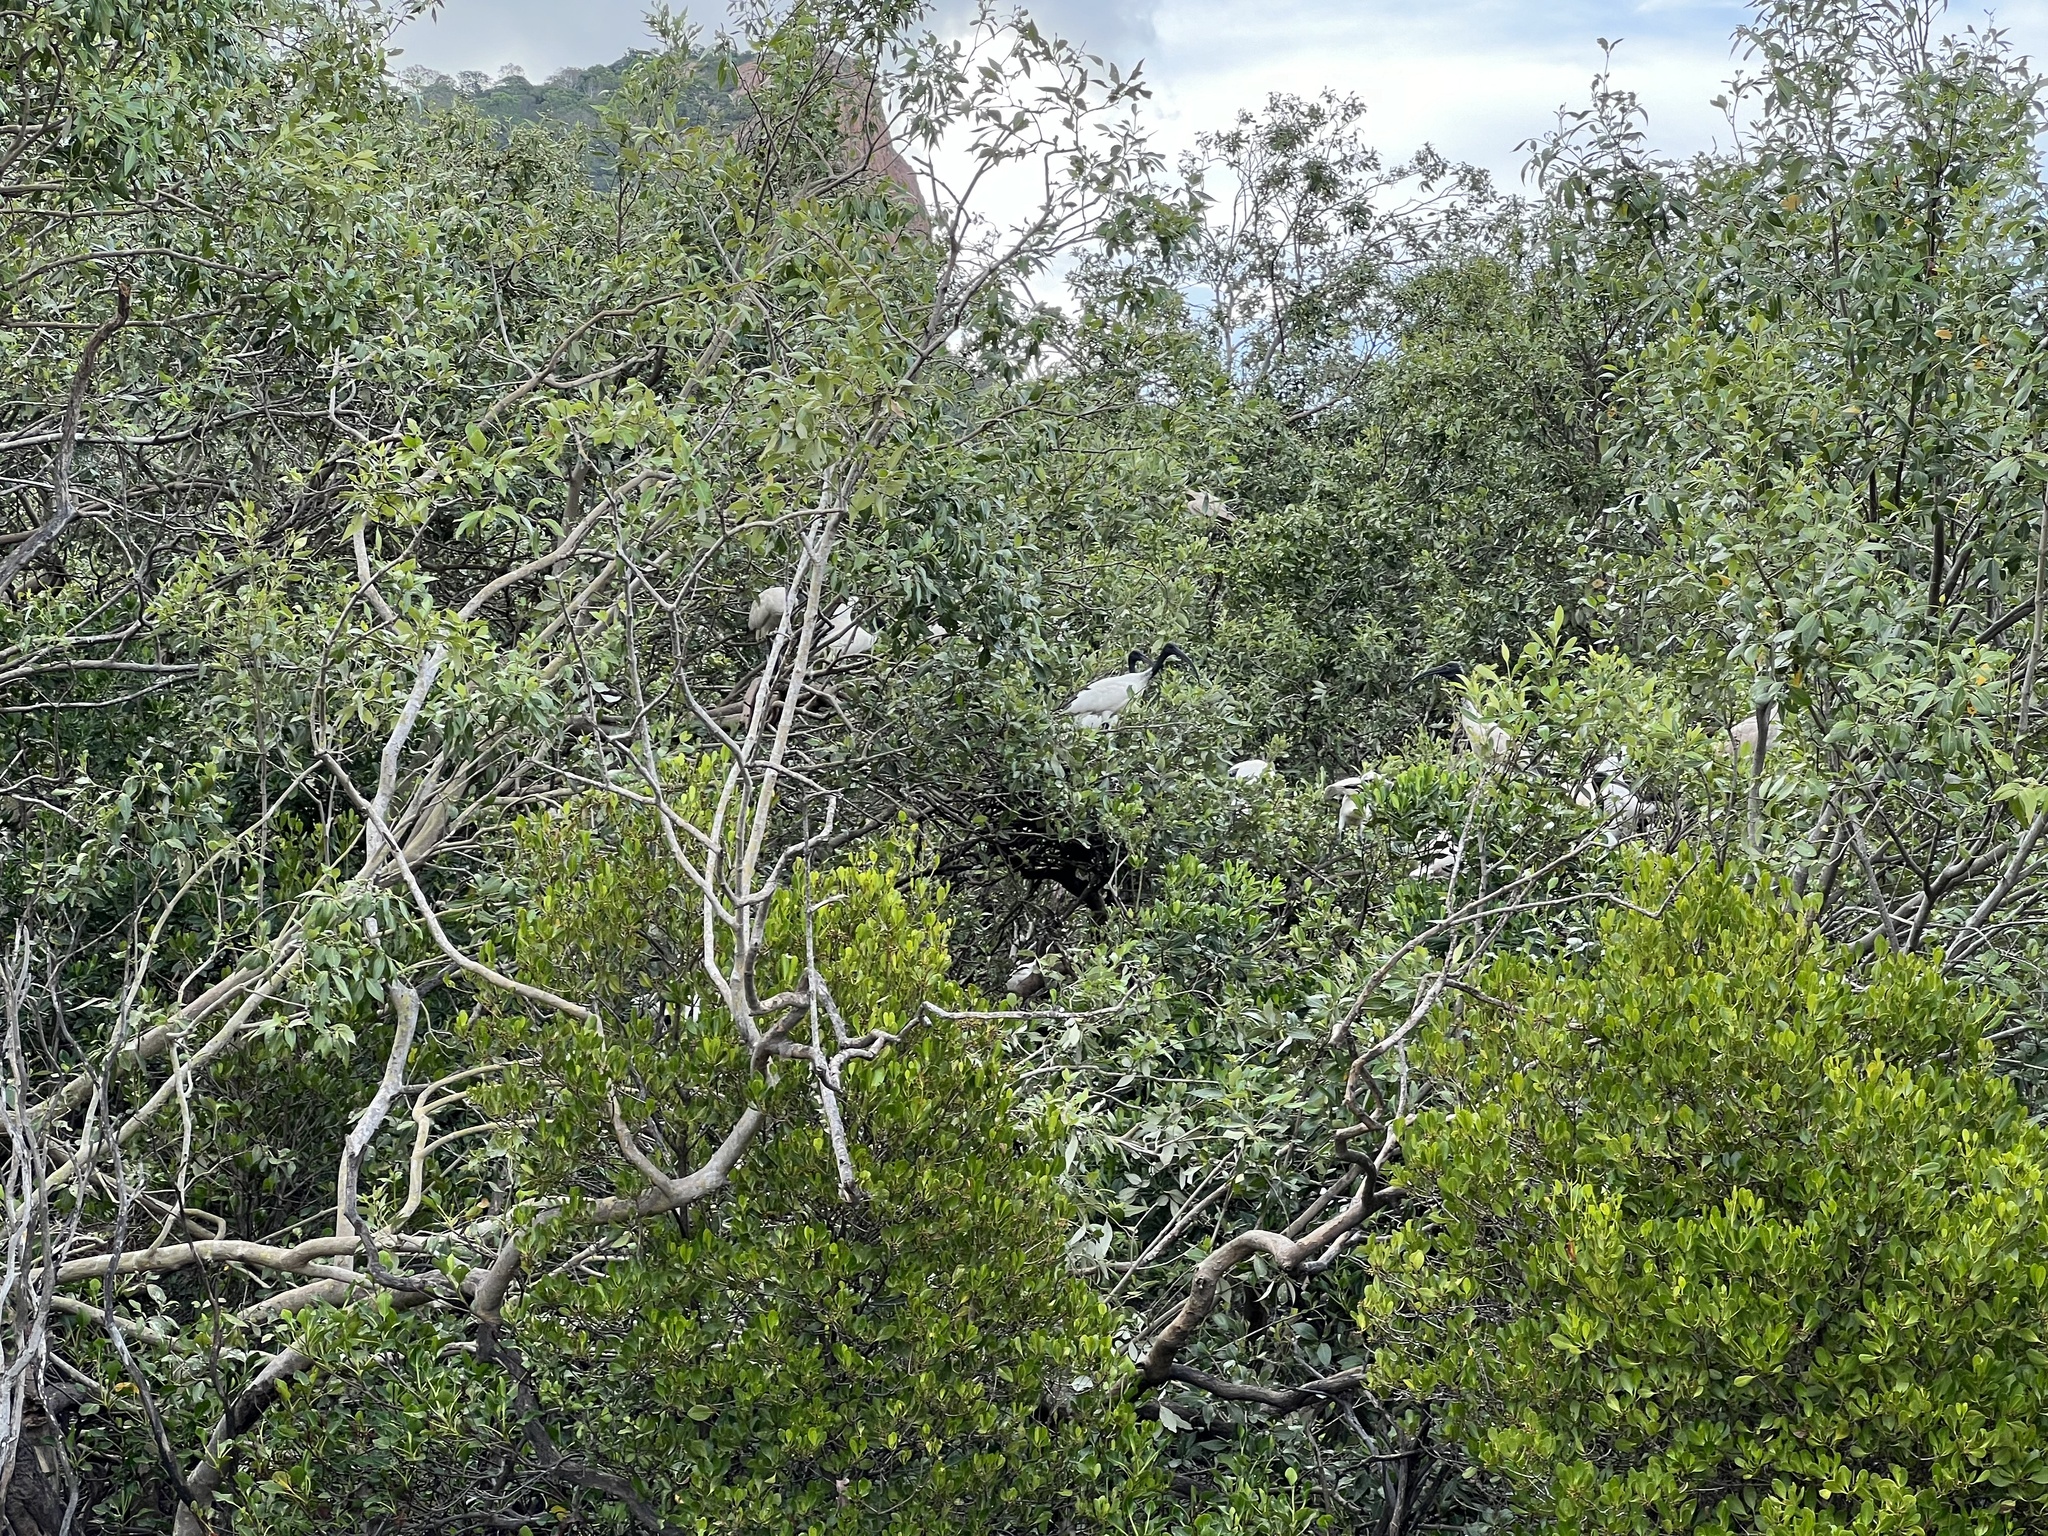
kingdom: Animalia
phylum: Chordata
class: Aves
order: Pelecaniformes
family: Threskiornithidae
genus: Threskiornis
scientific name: Threskiornis molucca
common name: Australian white ibis
